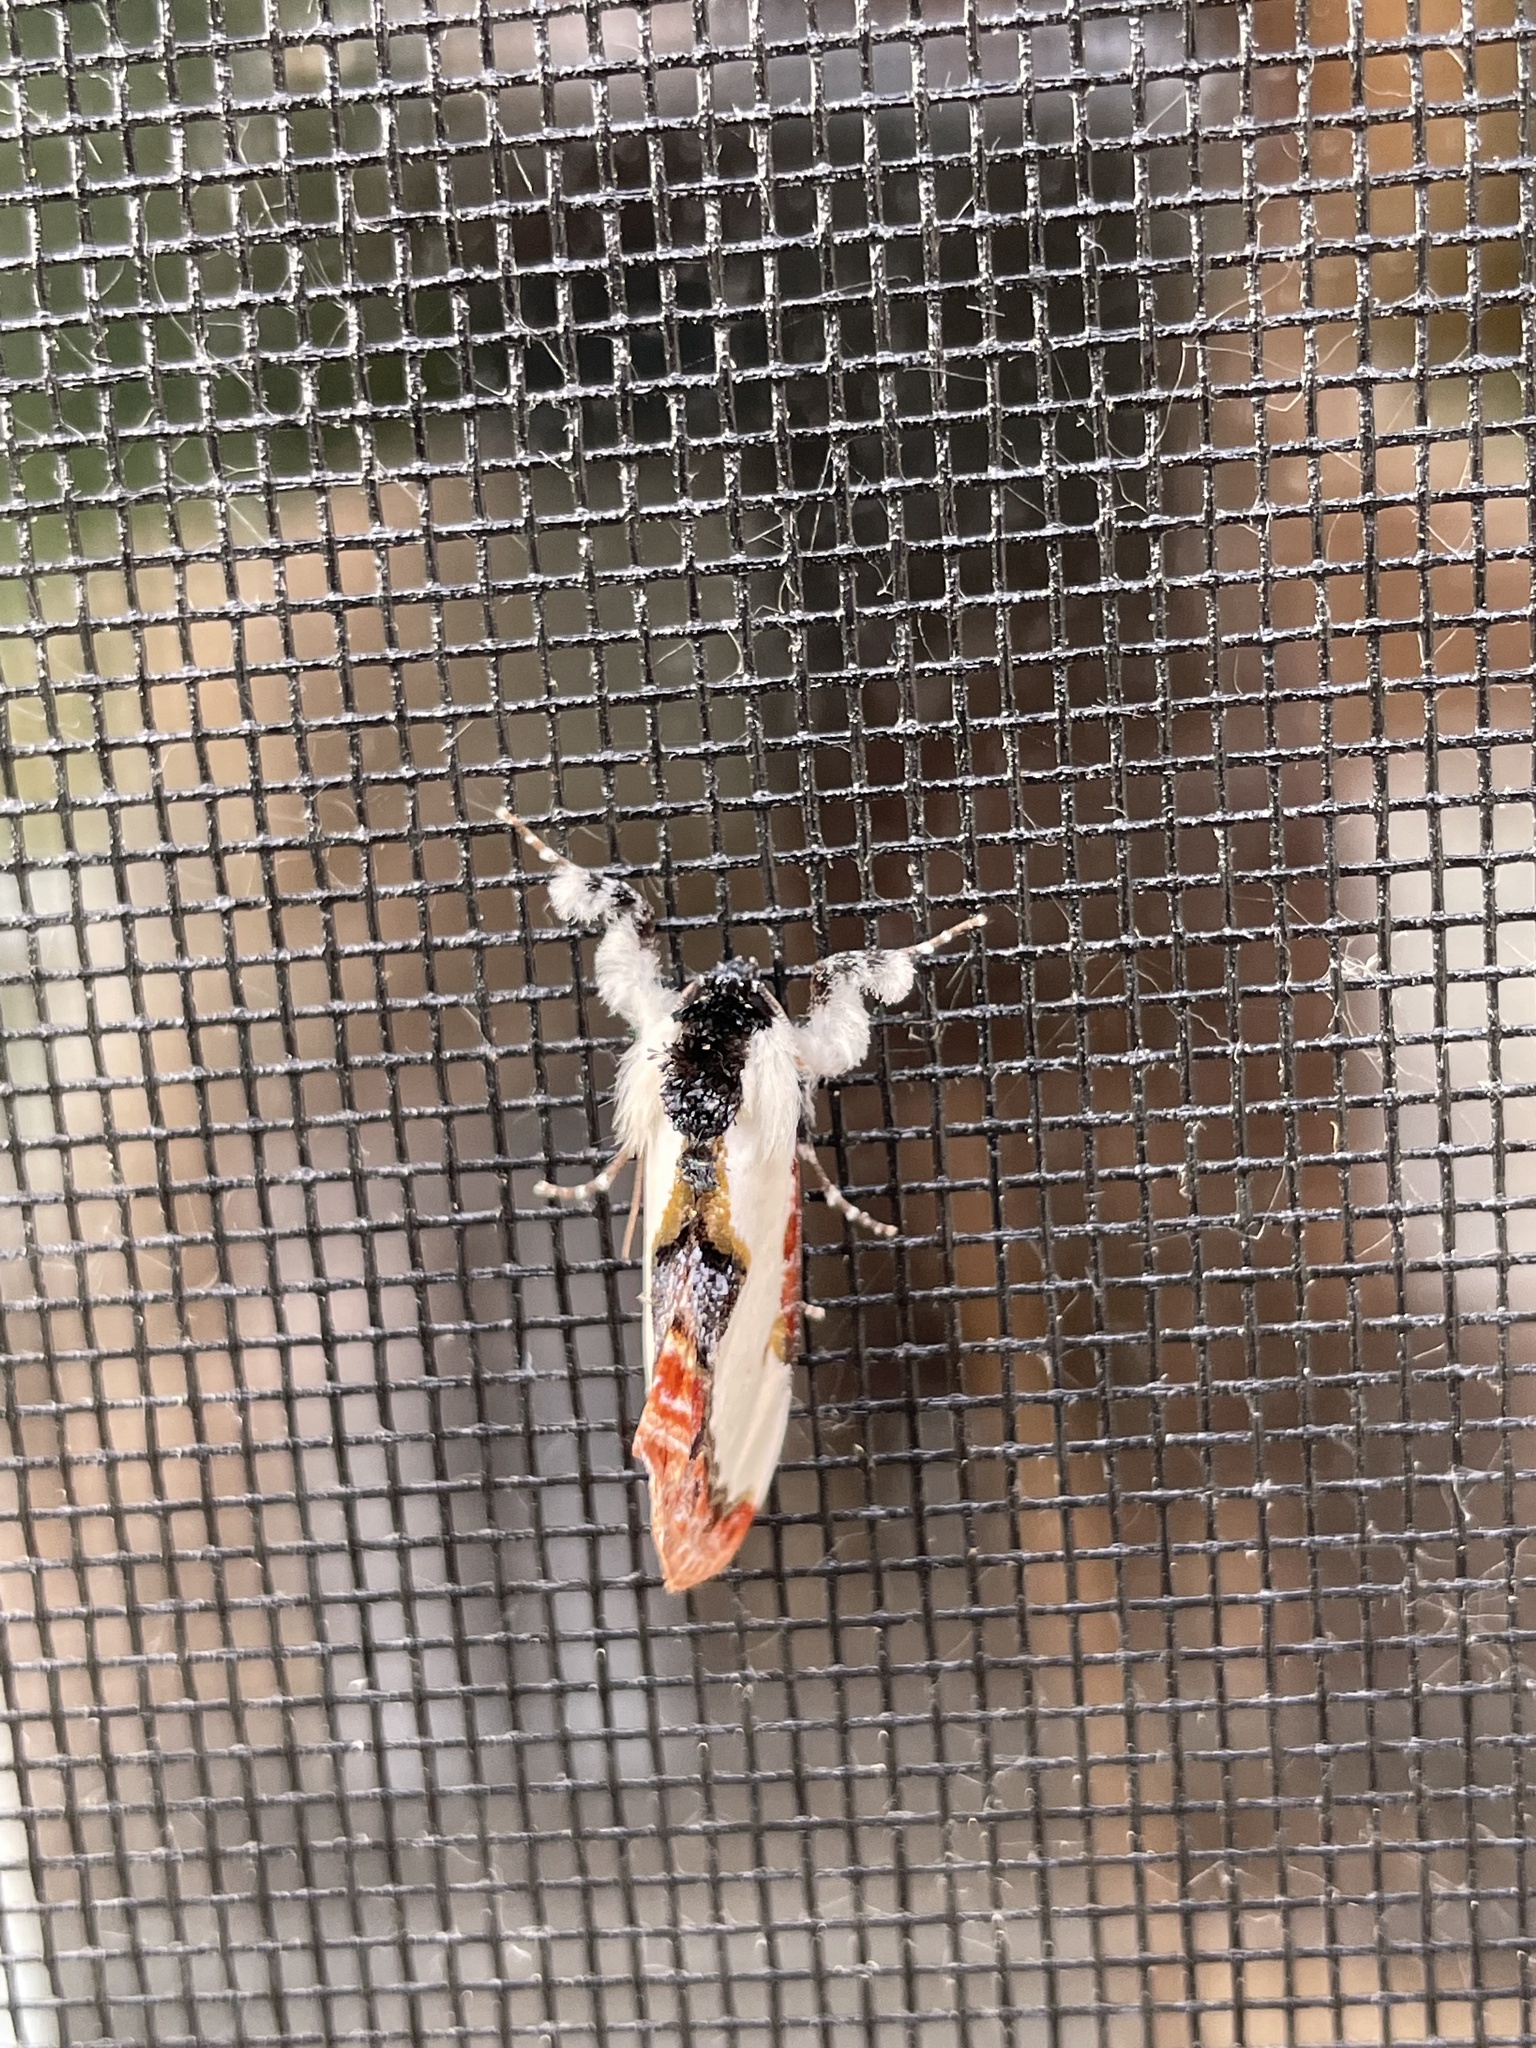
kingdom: Animalia
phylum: Arthropoda
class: Insecta
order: Lepidoptera
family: Noctuidae
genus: Eudryas
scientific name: Eudryas unio
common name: Pearly wood-nymph
